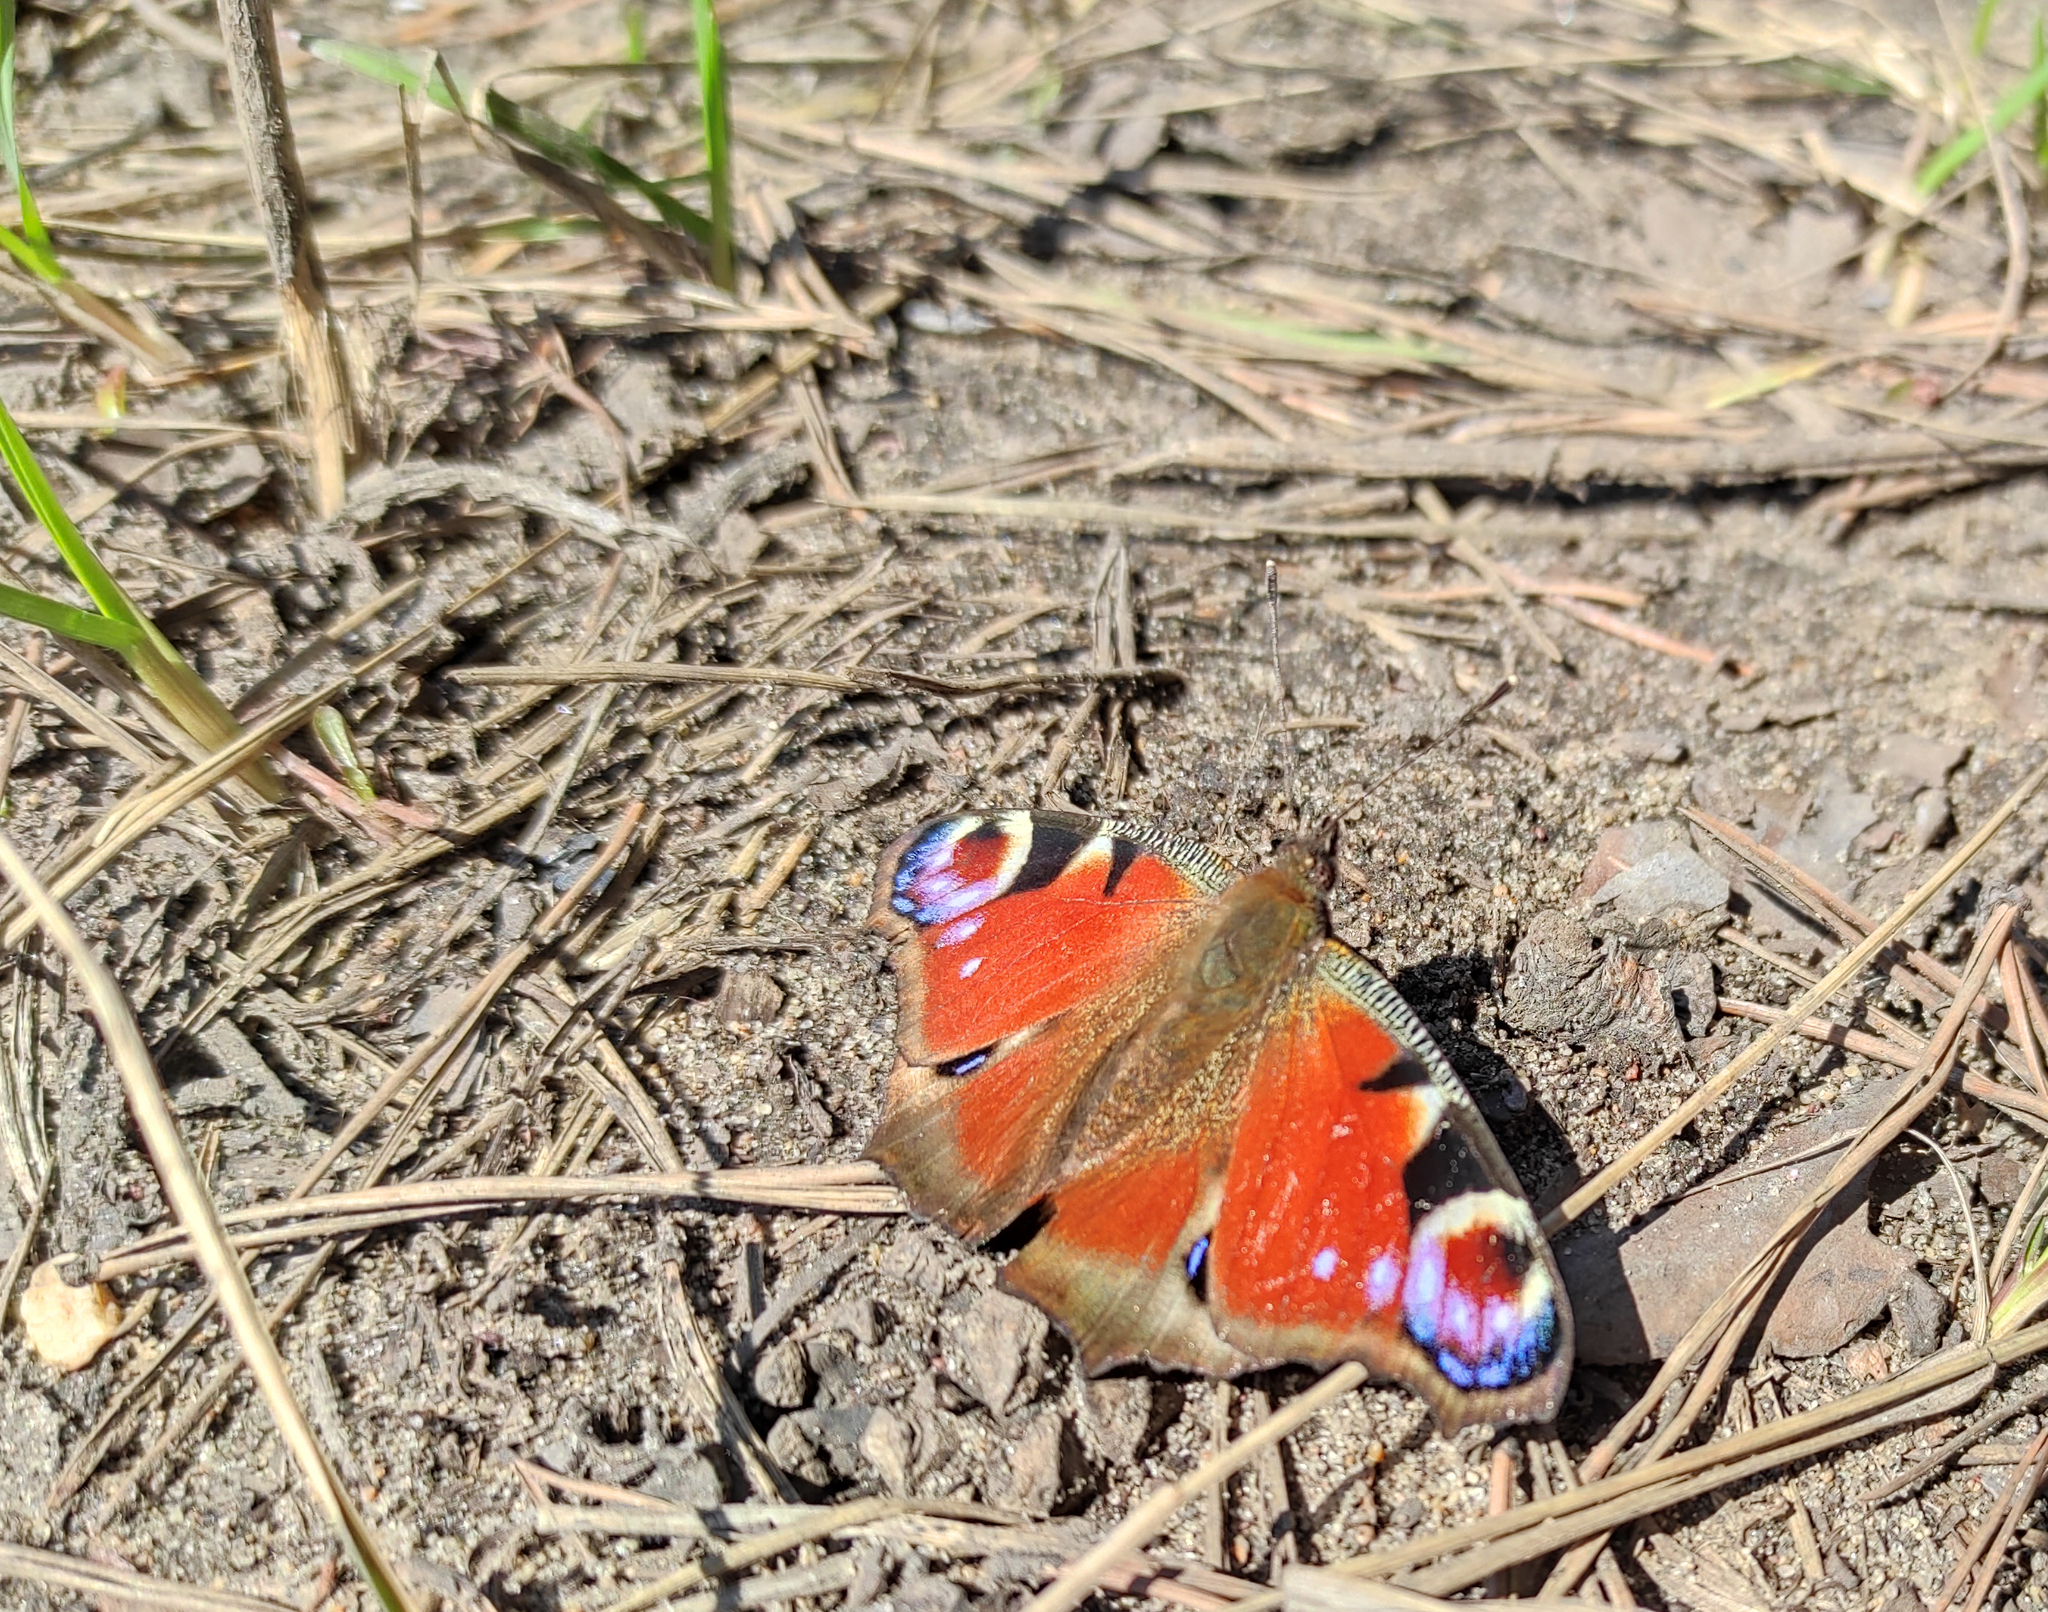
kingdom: Animalia
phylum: Arthropoda
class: Insecta
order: Lepidoptera
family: Nymphalidae
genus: Aglais
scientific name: Aglais io
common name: Peacock
